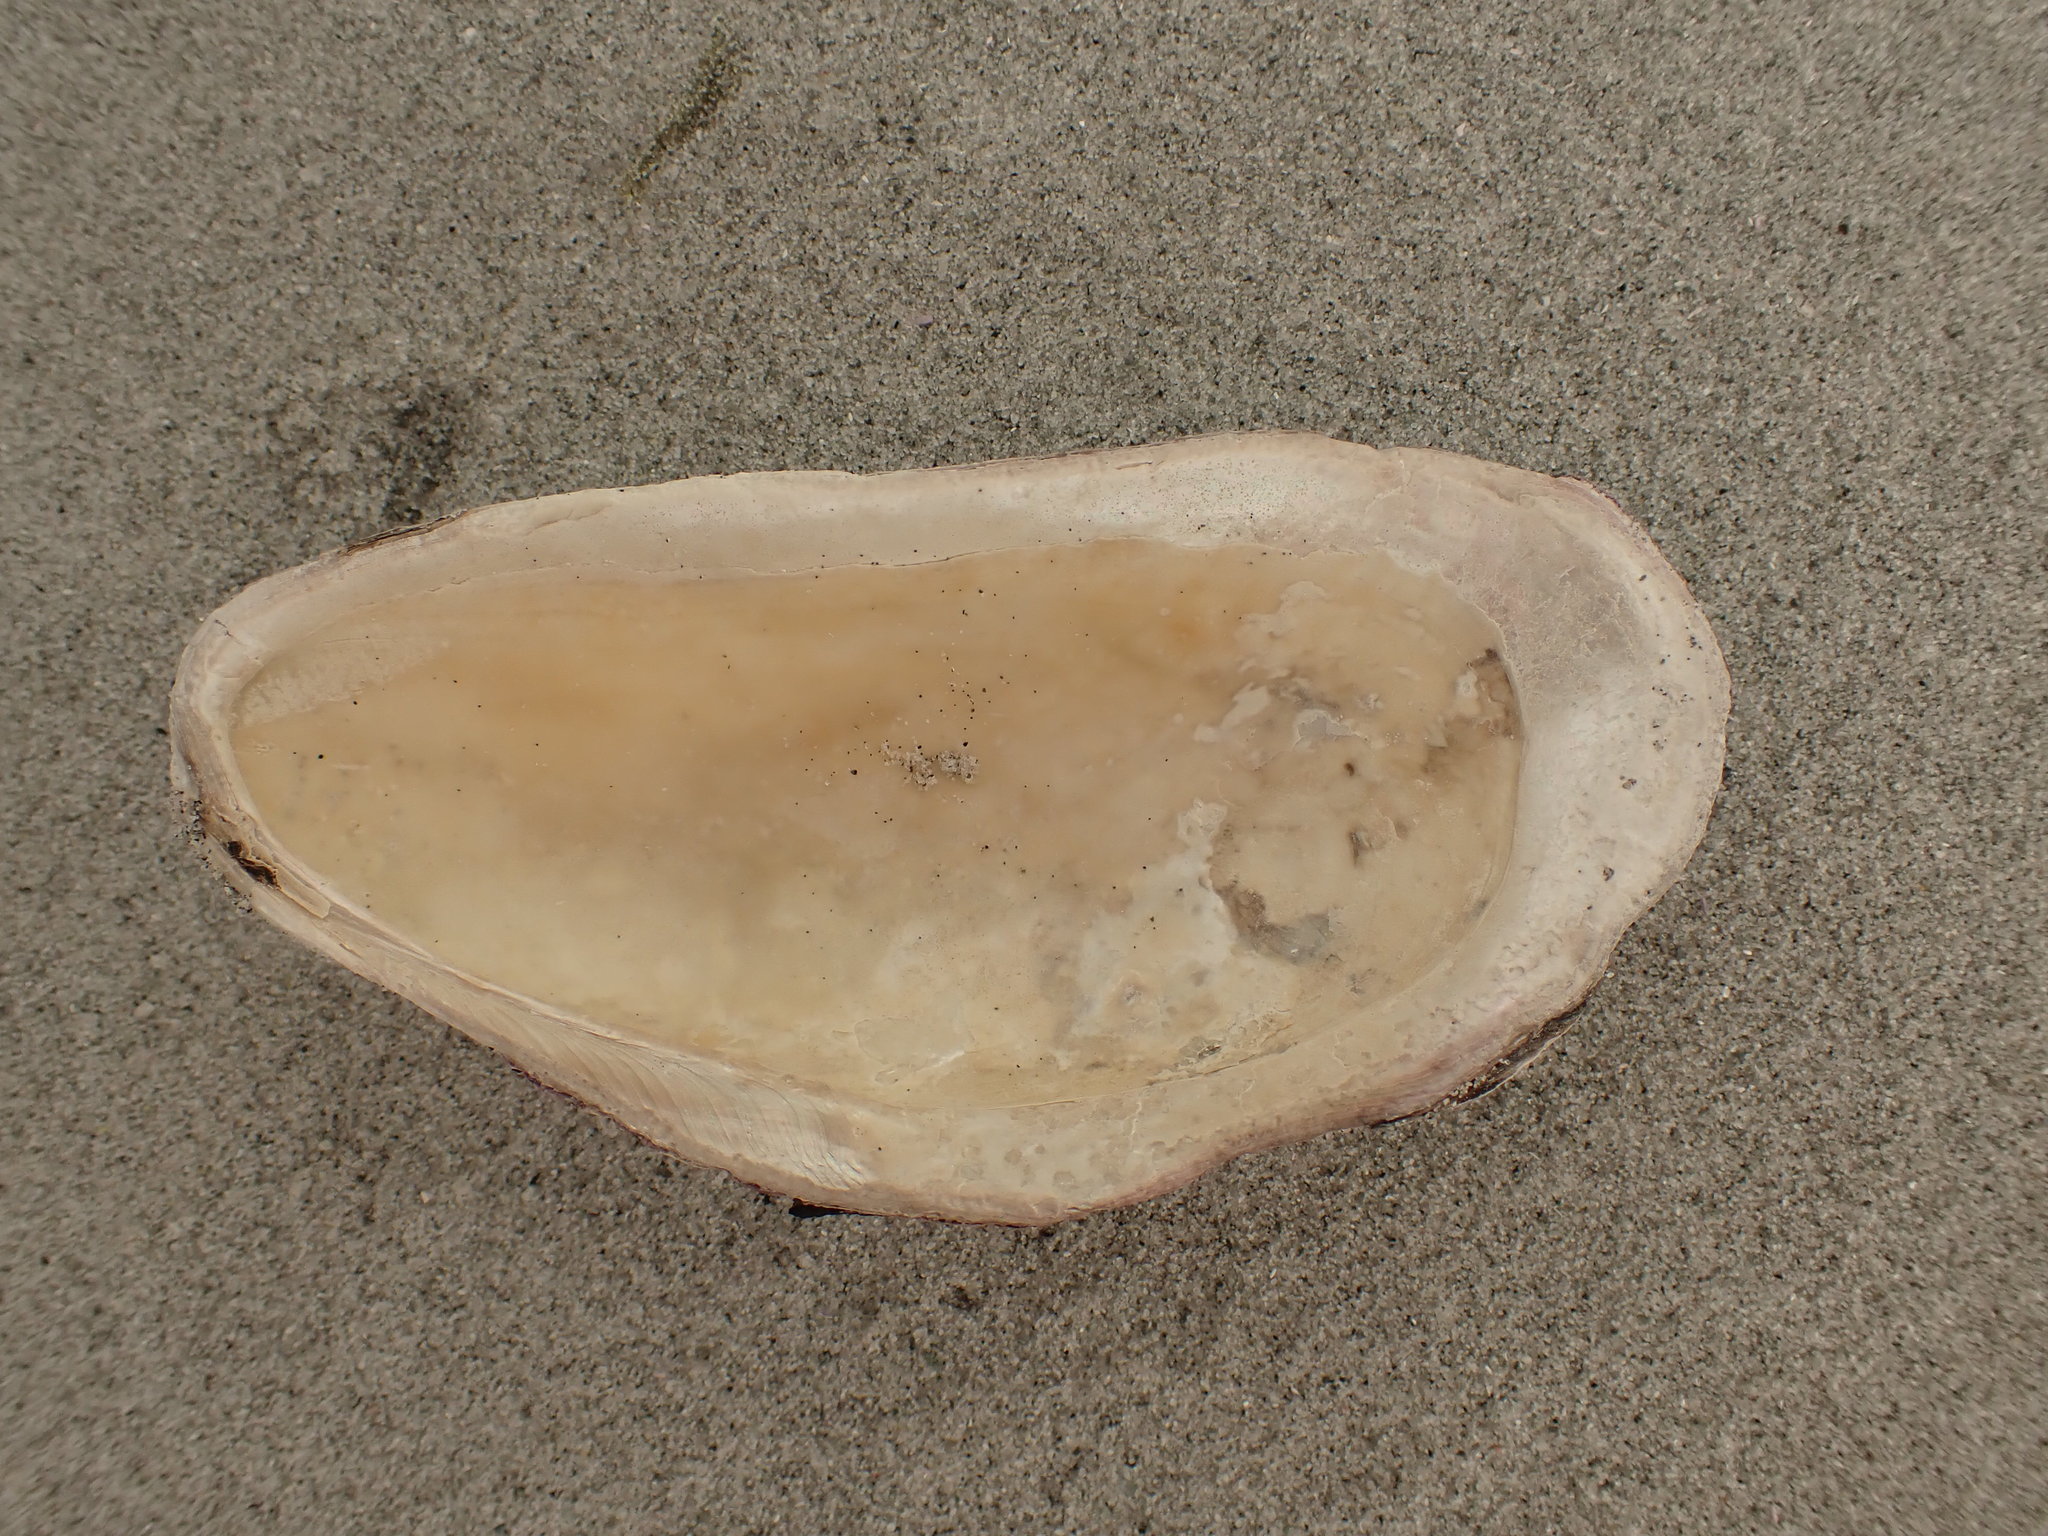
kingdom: Animalia
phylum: Mollusca
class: Bivalvia
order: Mytilida
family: Mytilidae
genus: Modiolus
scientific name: Modiolus modiolus
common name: Horse-mussel
